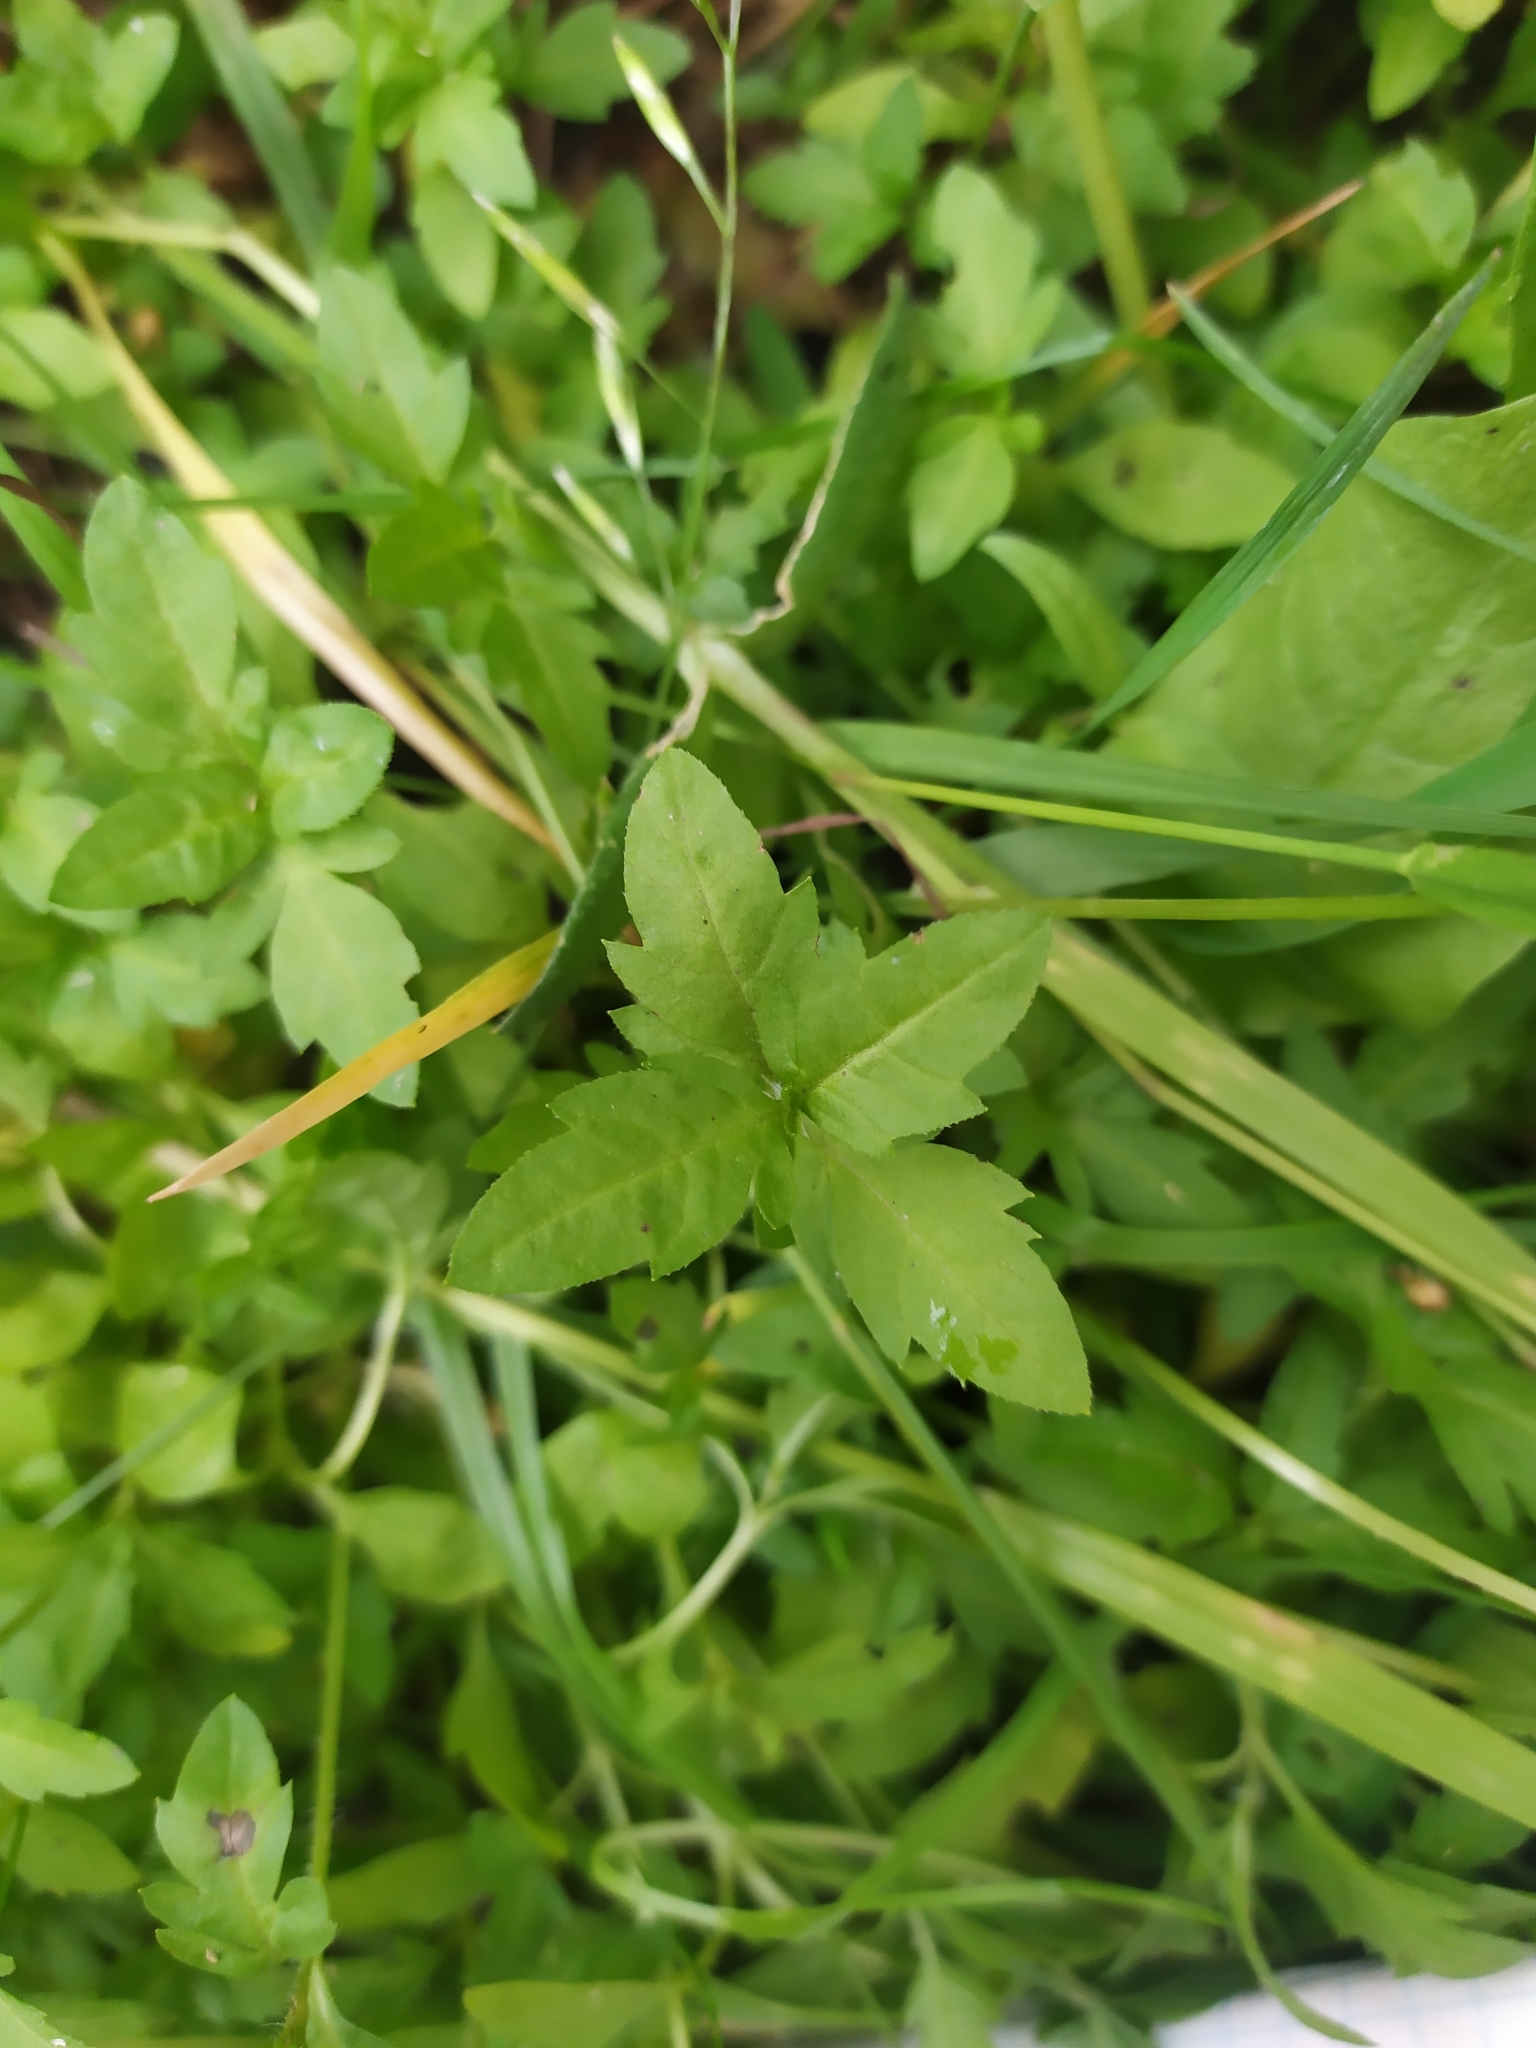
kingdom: Plantae
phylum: Tracheophyta
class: Magnoliopsida
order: Asterales
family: Asteraceae
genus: Bidens
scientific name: Bidens tripartita
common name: Trifid bur-marigold
